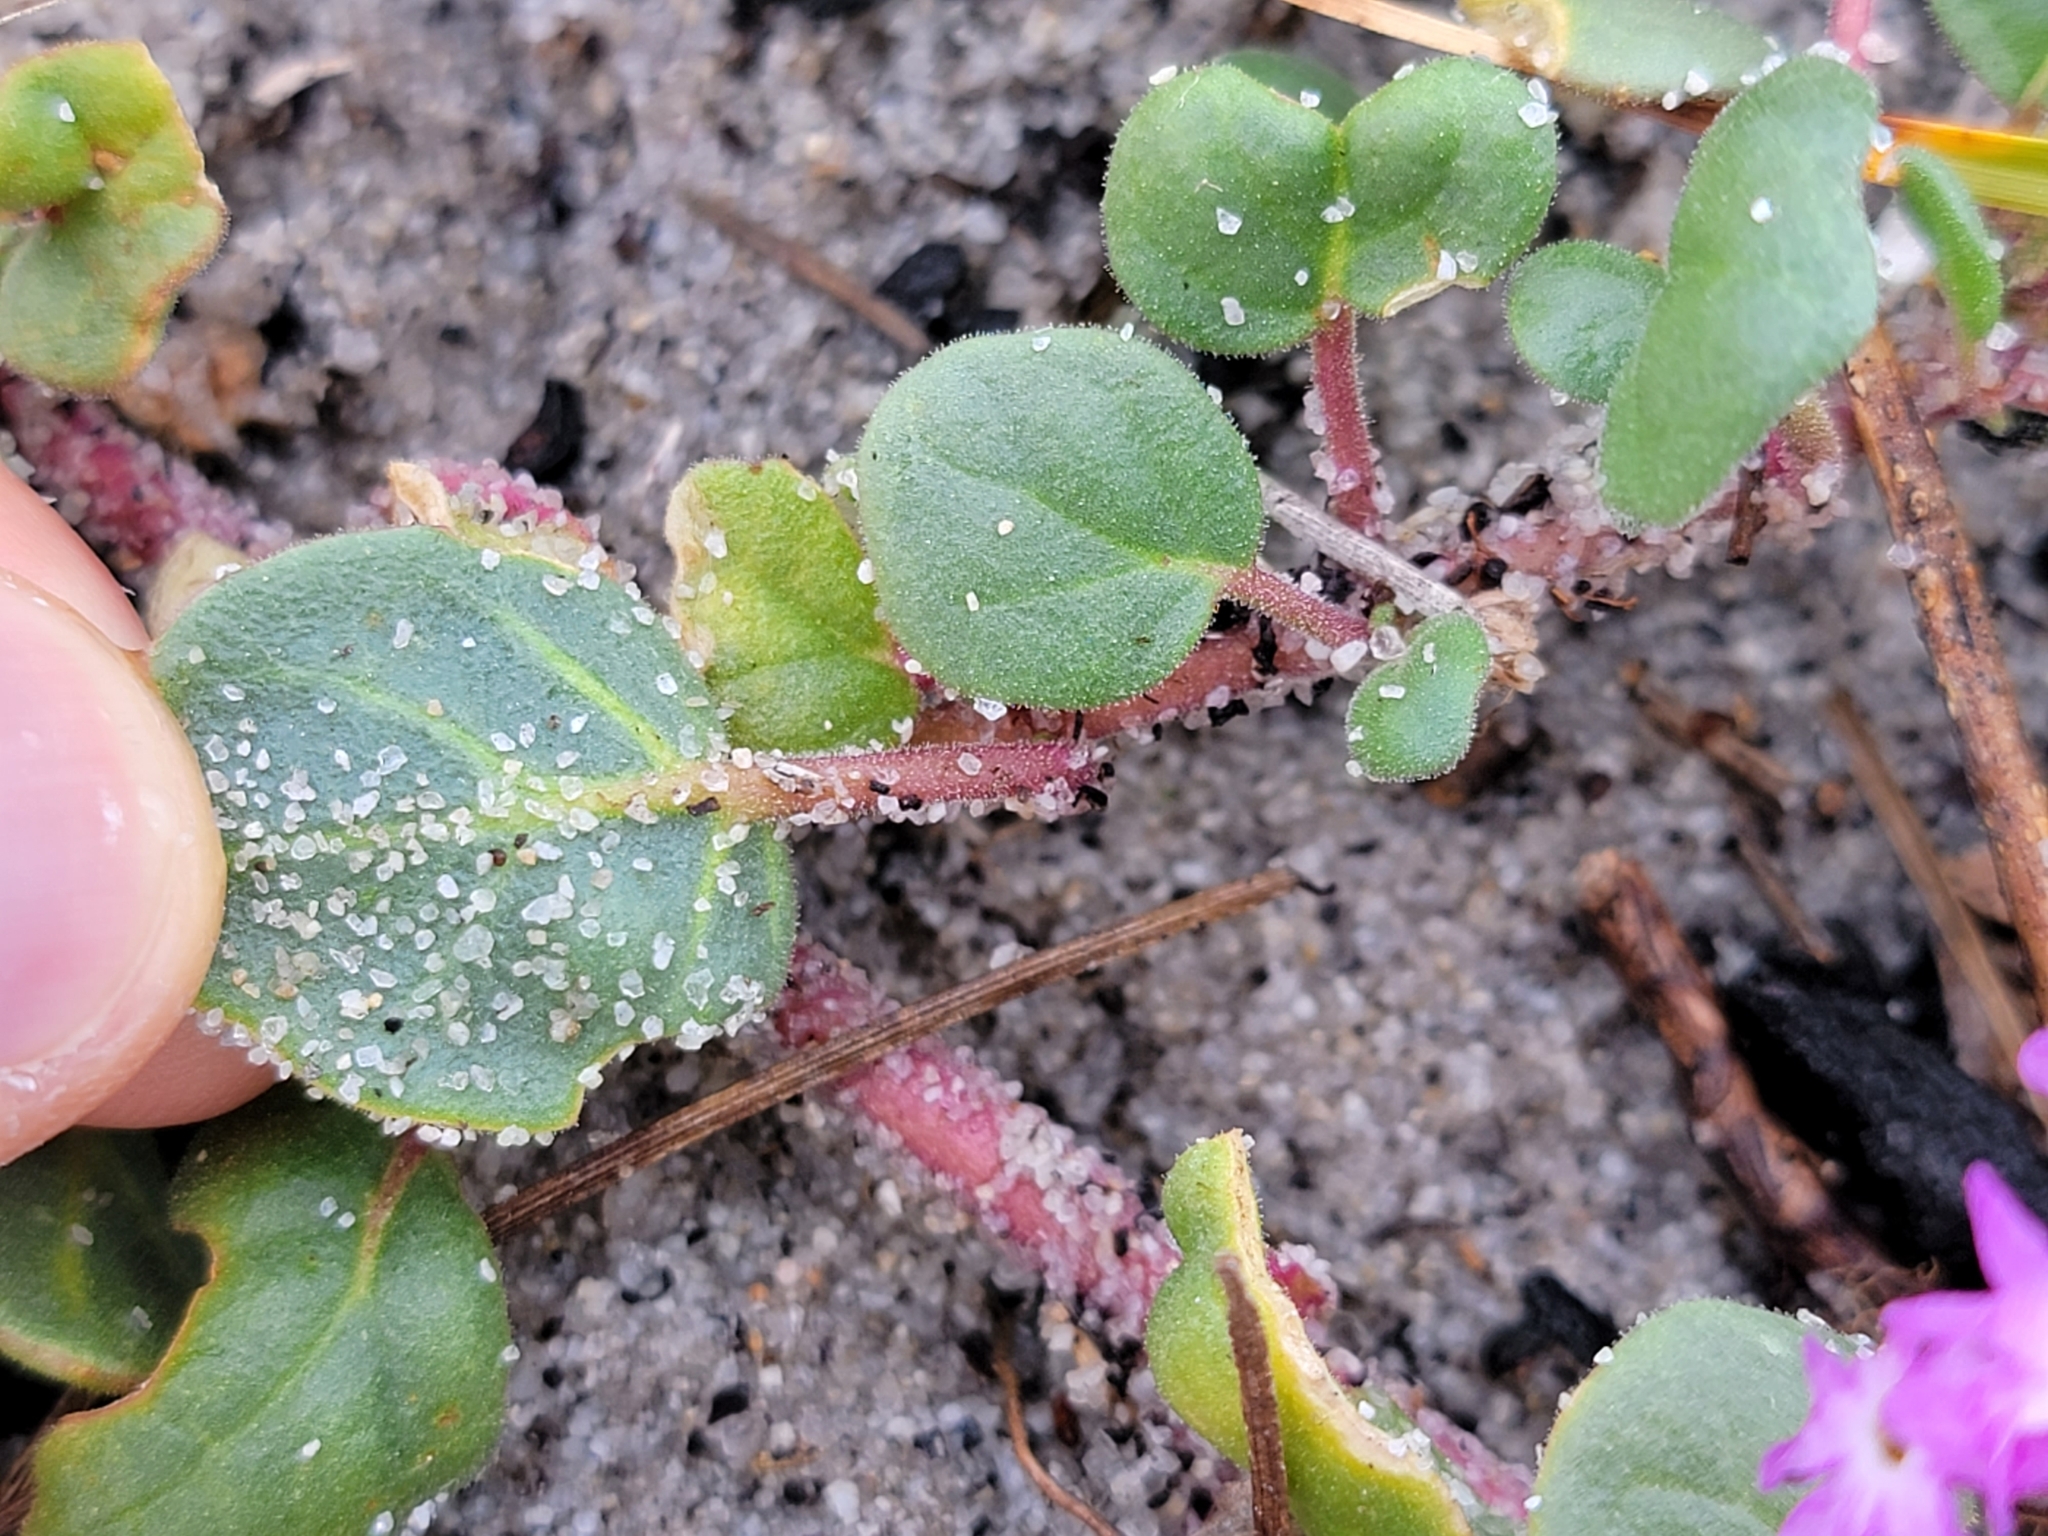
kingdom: Plantae
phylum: Tracheophyta
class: Magnoliopsida
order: Caryophyllales
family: Nyctaginaceae
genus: Abronia
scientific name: Abronia umbellata
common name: Sand-verbena
